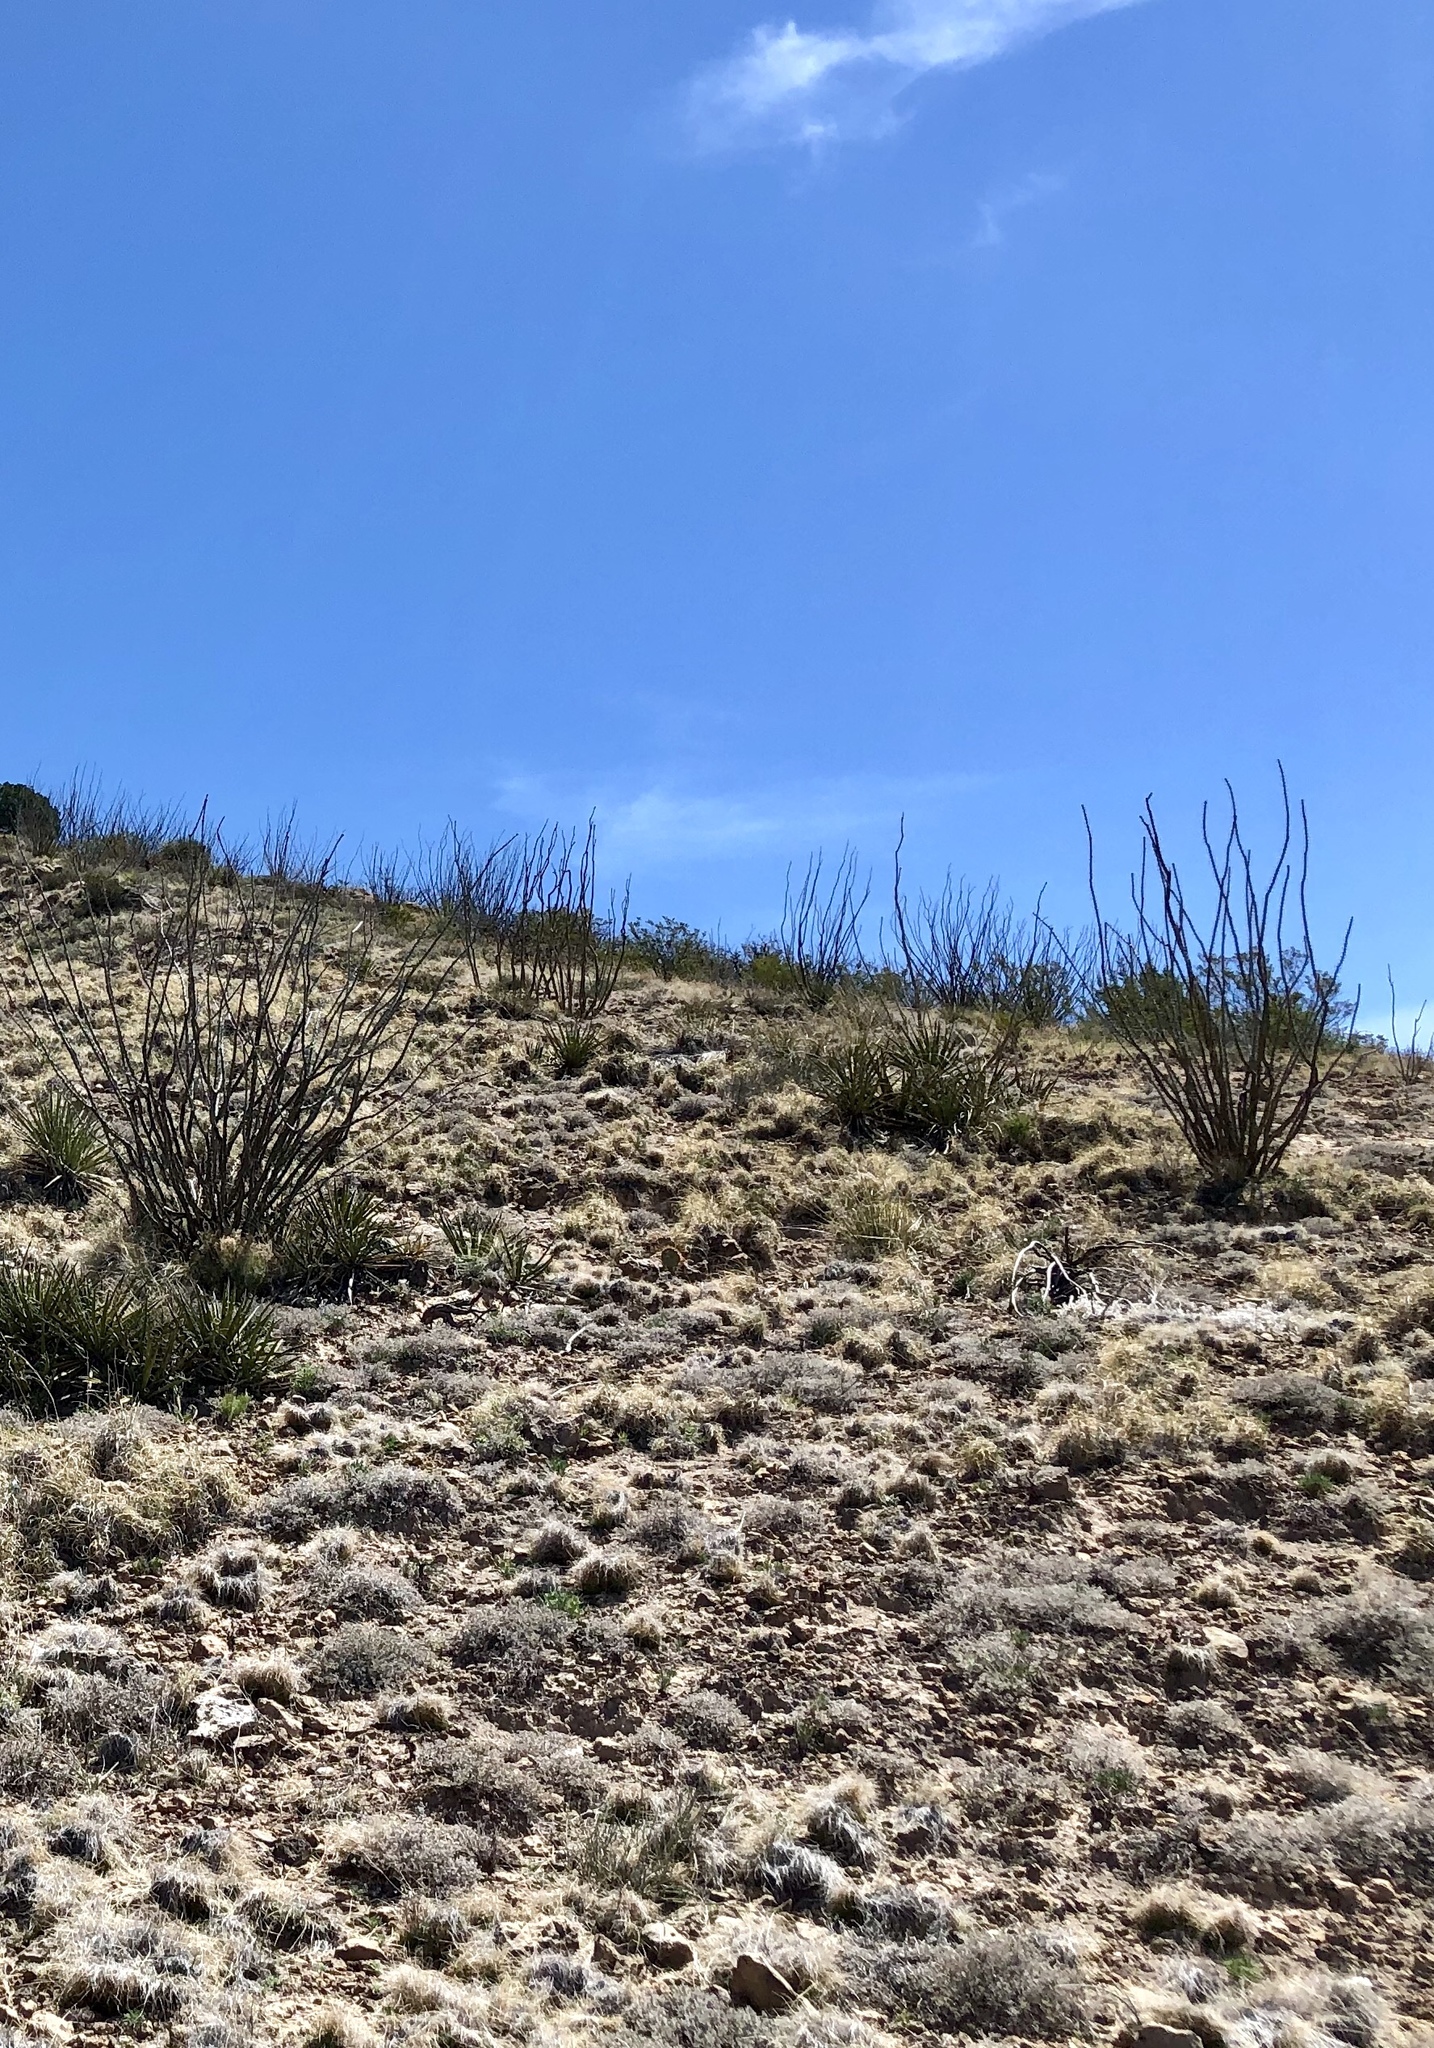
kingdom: Plantae
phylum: Tracheophyta
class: Magnoliopsida
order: Ericales
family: Fouquieriaceae
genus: Fouquieria
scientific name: Fouquieria splendens
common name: Vine-cactus
